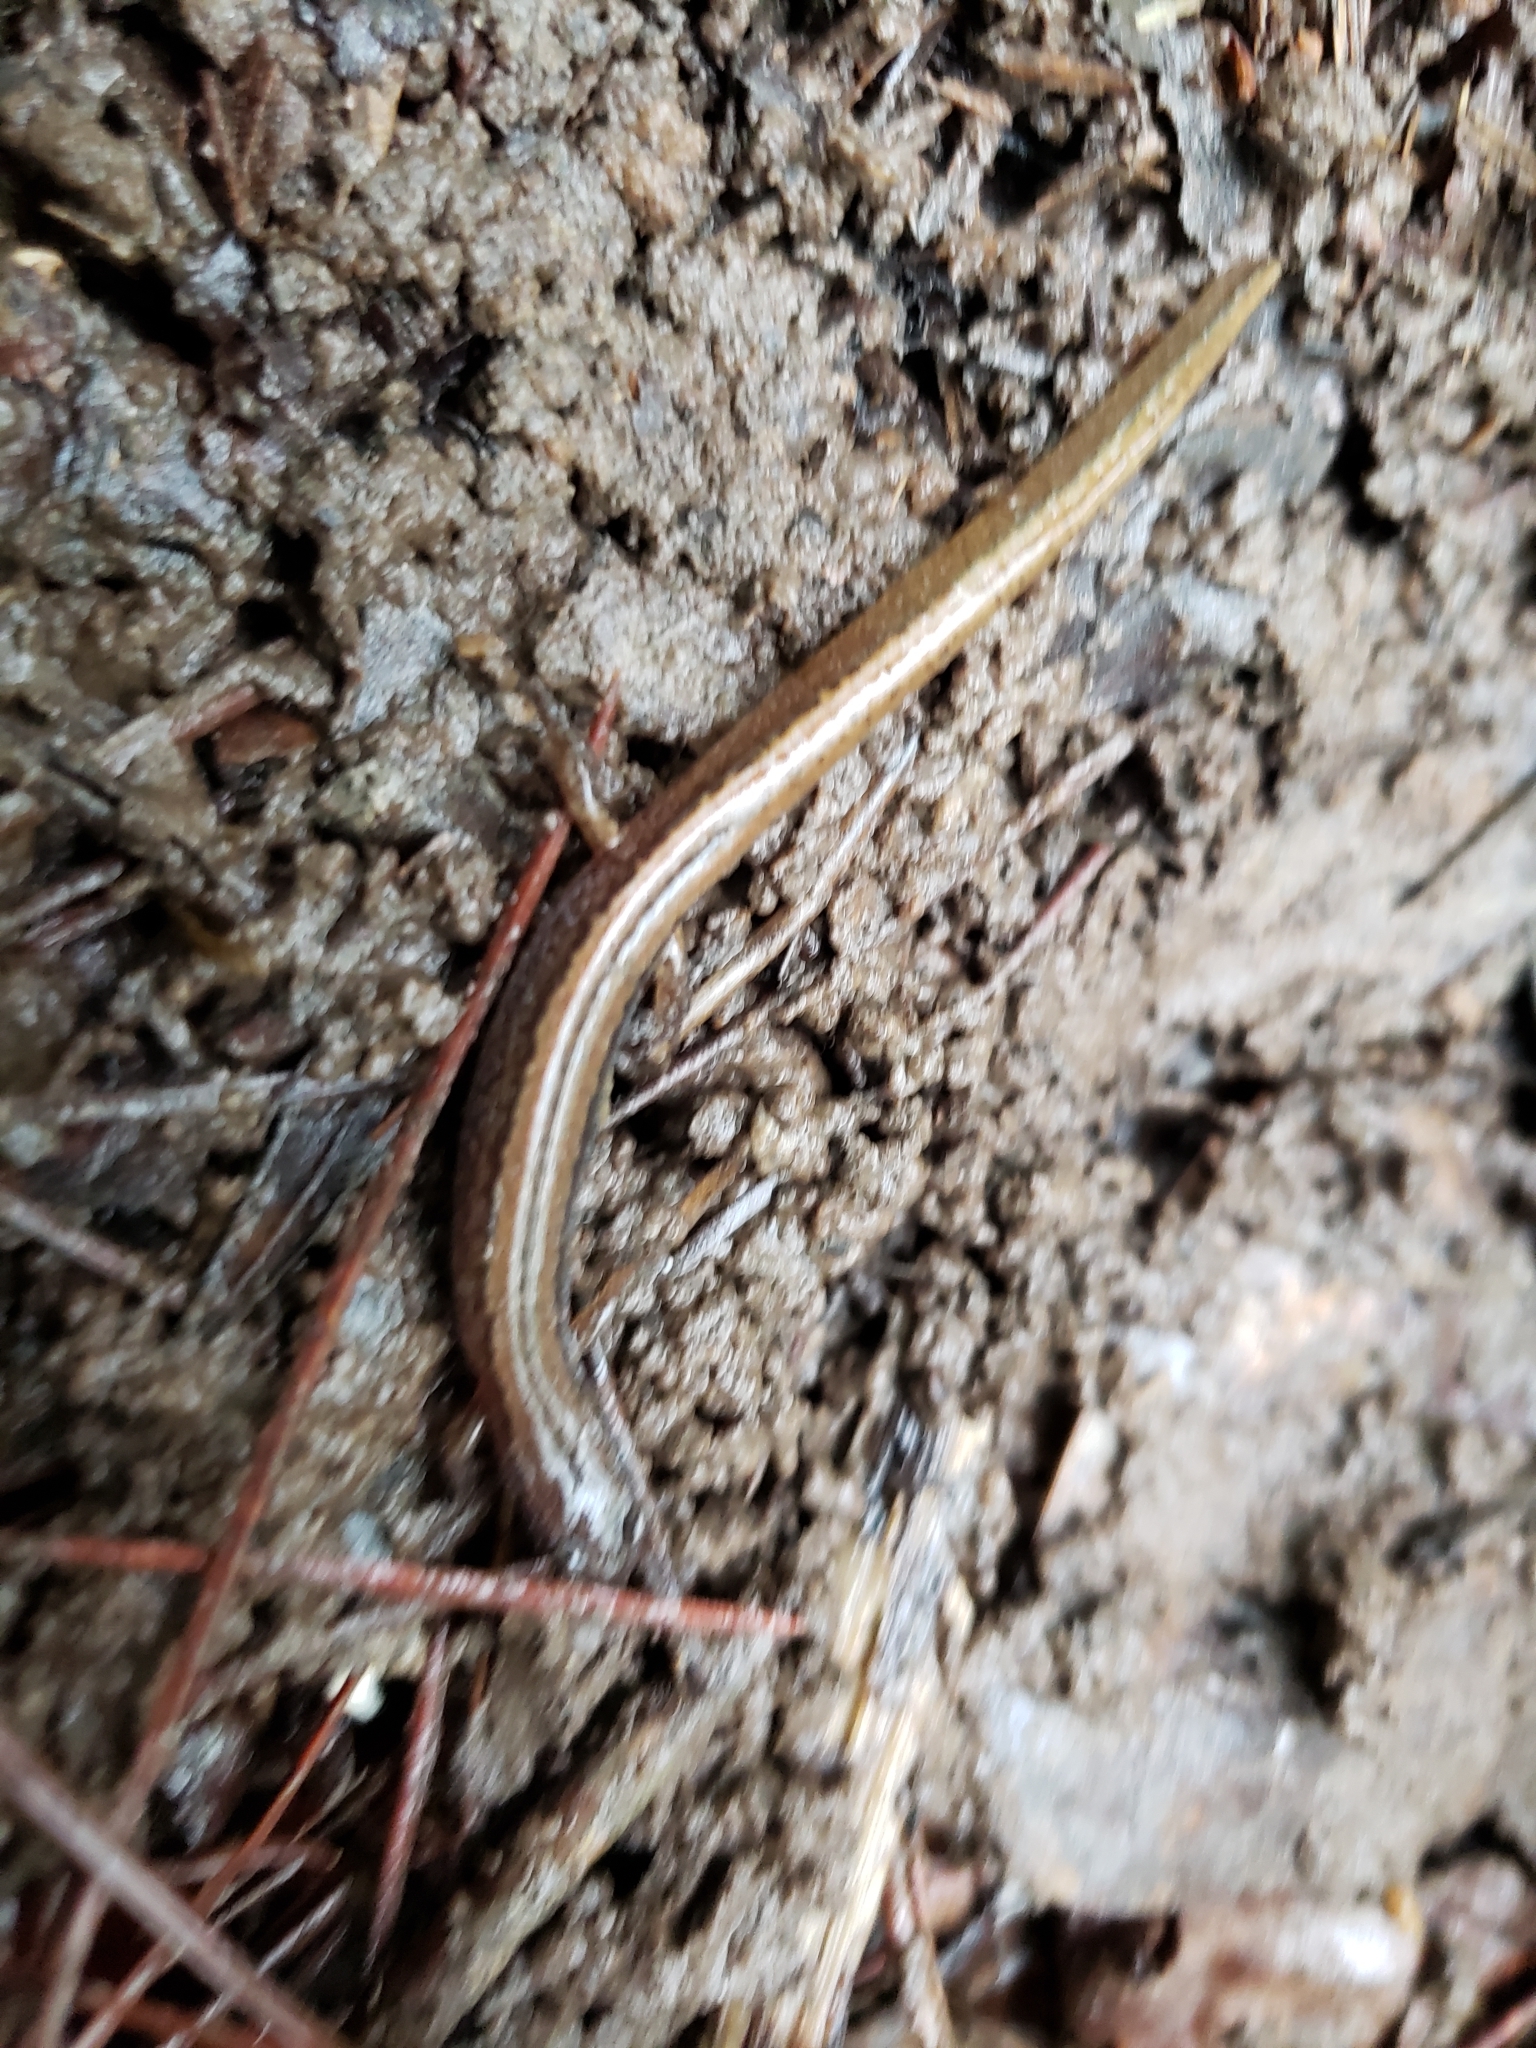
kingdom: Animalia
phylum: Chordata
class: Amphibia
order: Caudata
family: Plethodontidae
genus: Eurycea
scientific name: Eurycea paludicola
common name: Western dwarf salamander
